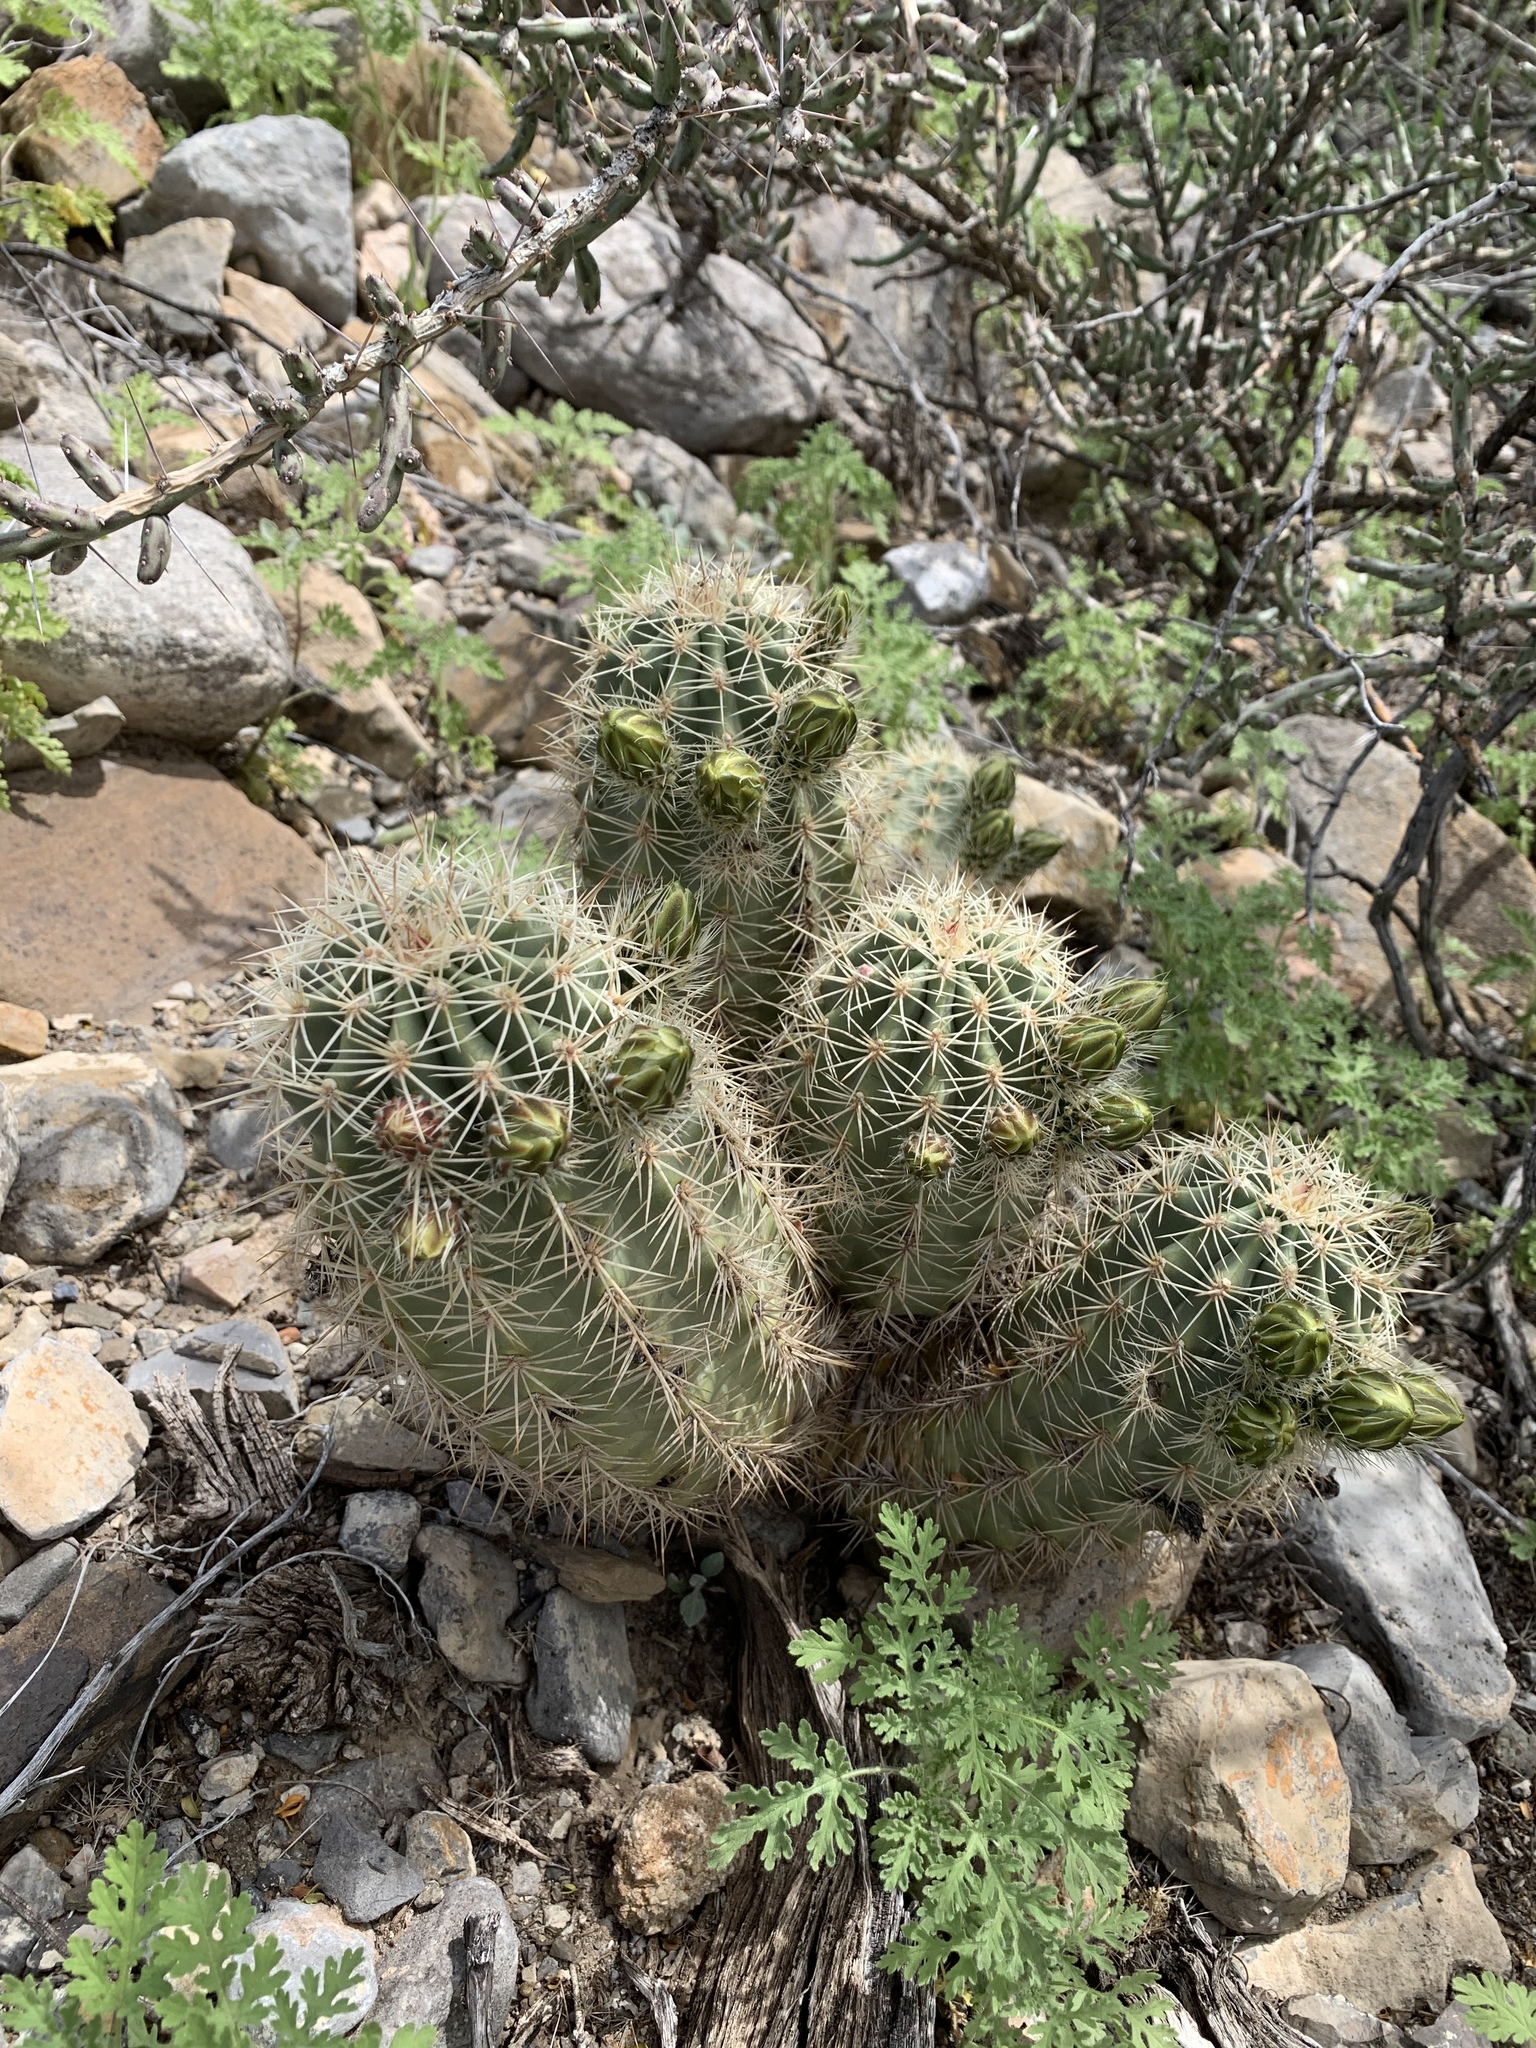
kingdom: Plantae
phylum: Tracheophyta
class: Magnoliopsida
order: Caryophyllales
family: Cactaceae
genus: Echinocereus
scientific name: Echinocereus coccineus
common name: Scarlet hedgehog cactus
